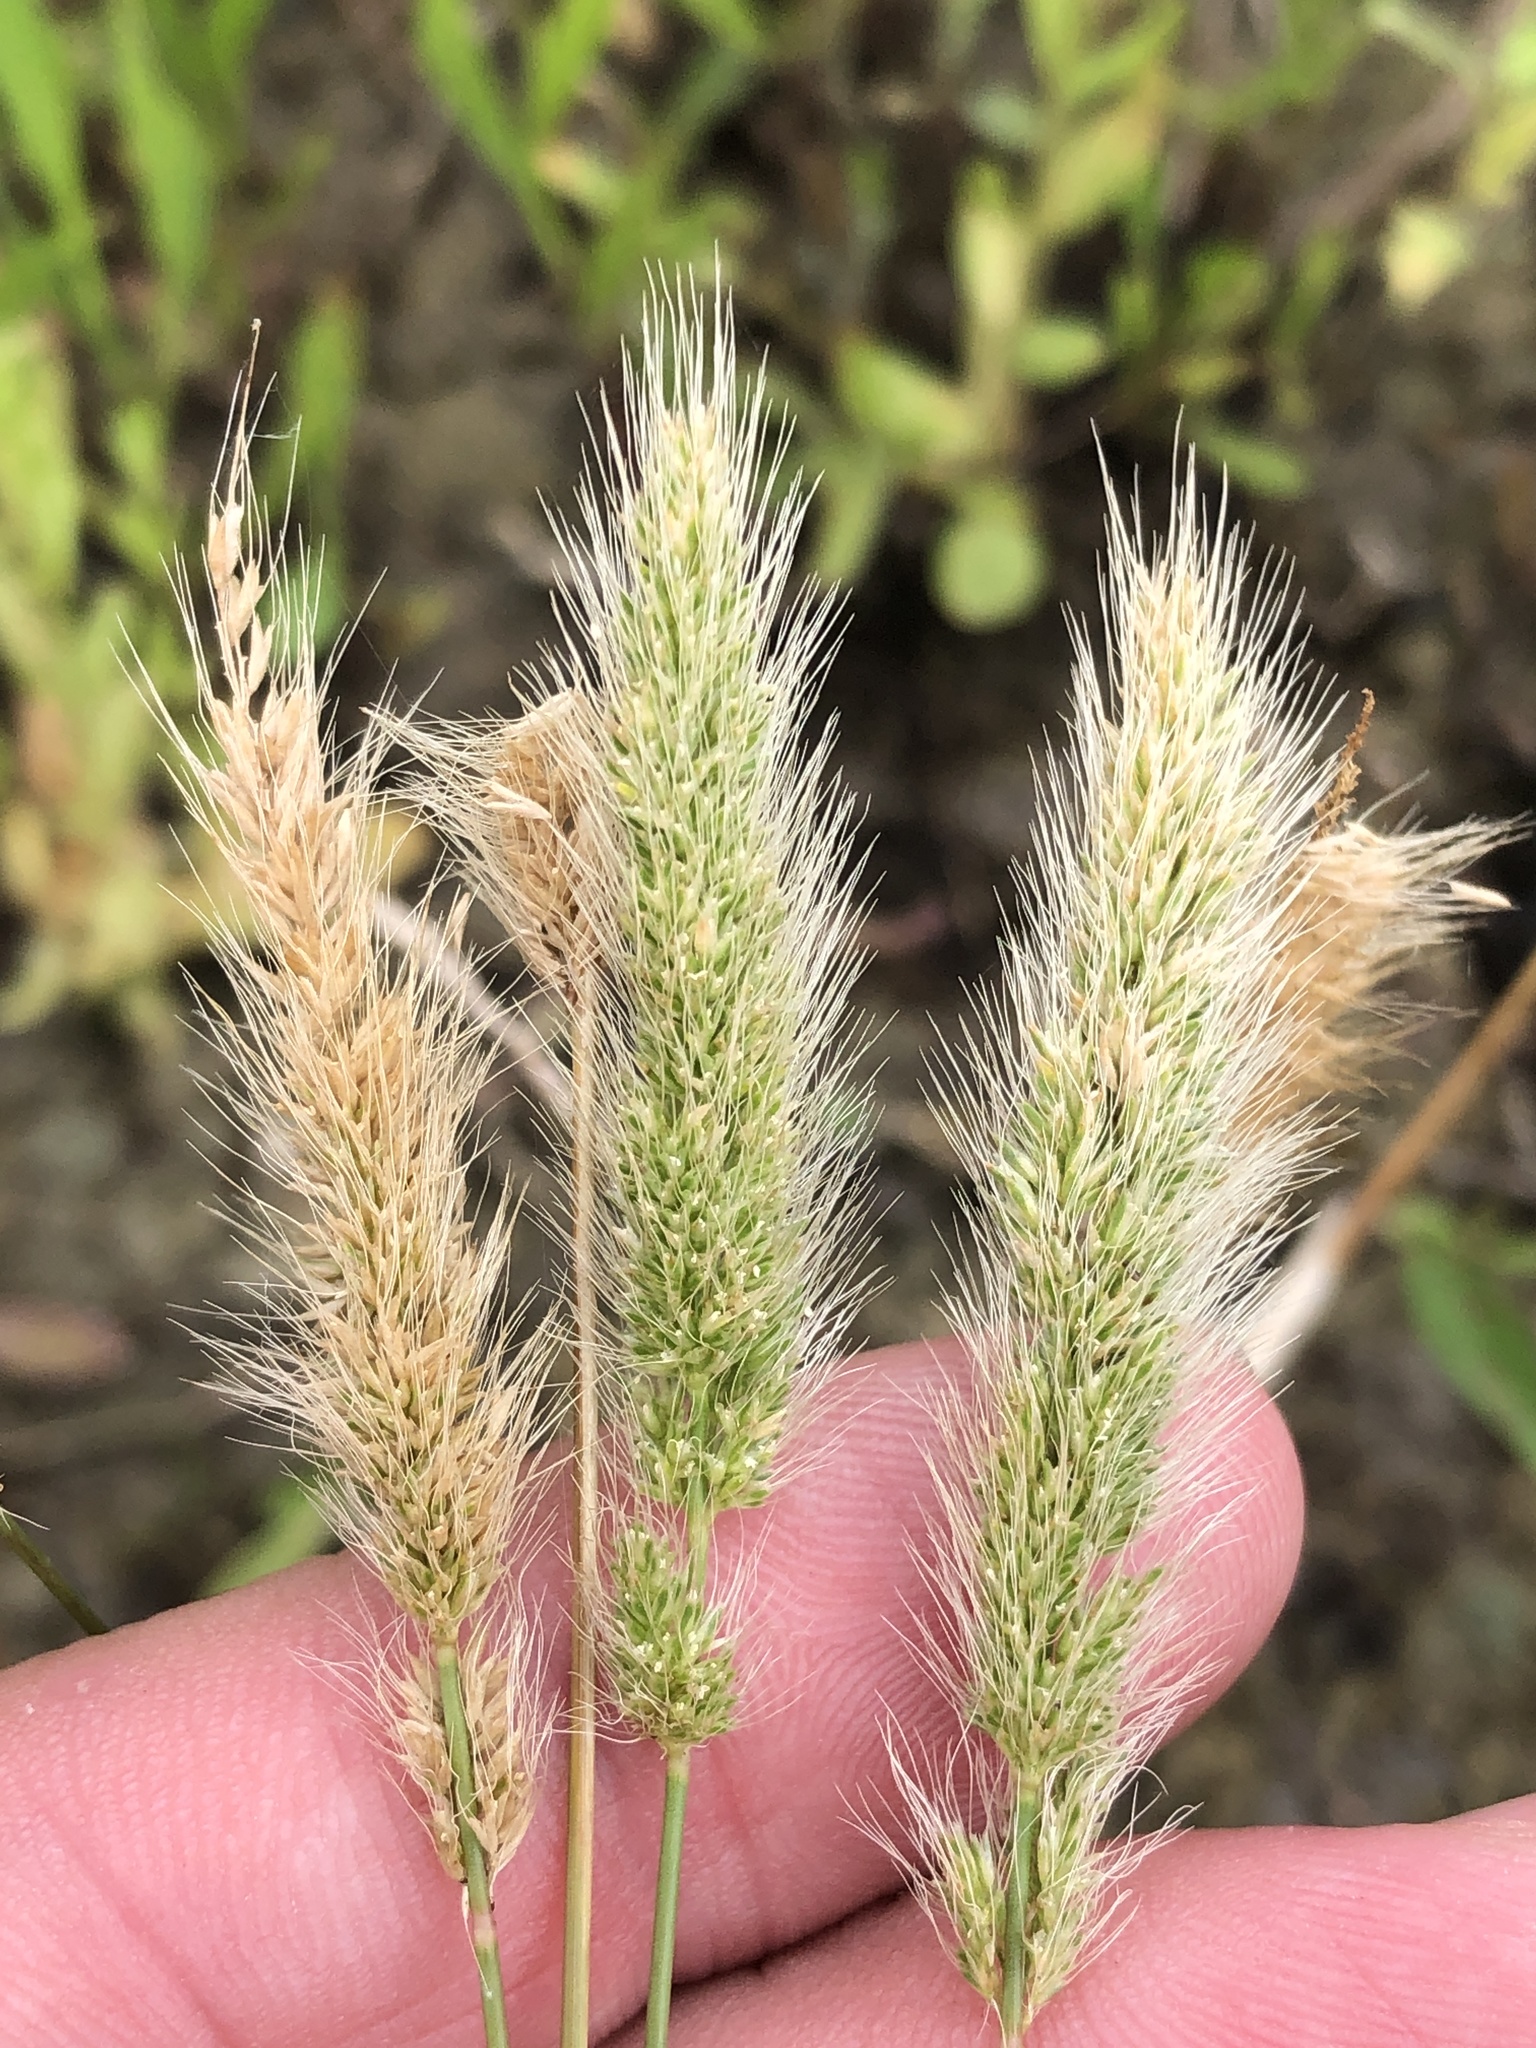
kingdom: Plantae
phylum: Tracheophyta
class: Liliopsida
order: Poales
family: Poaceae
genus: Polypogon
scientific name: Polypogon monspeliensis
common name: Annual rabbitsfoot grass
